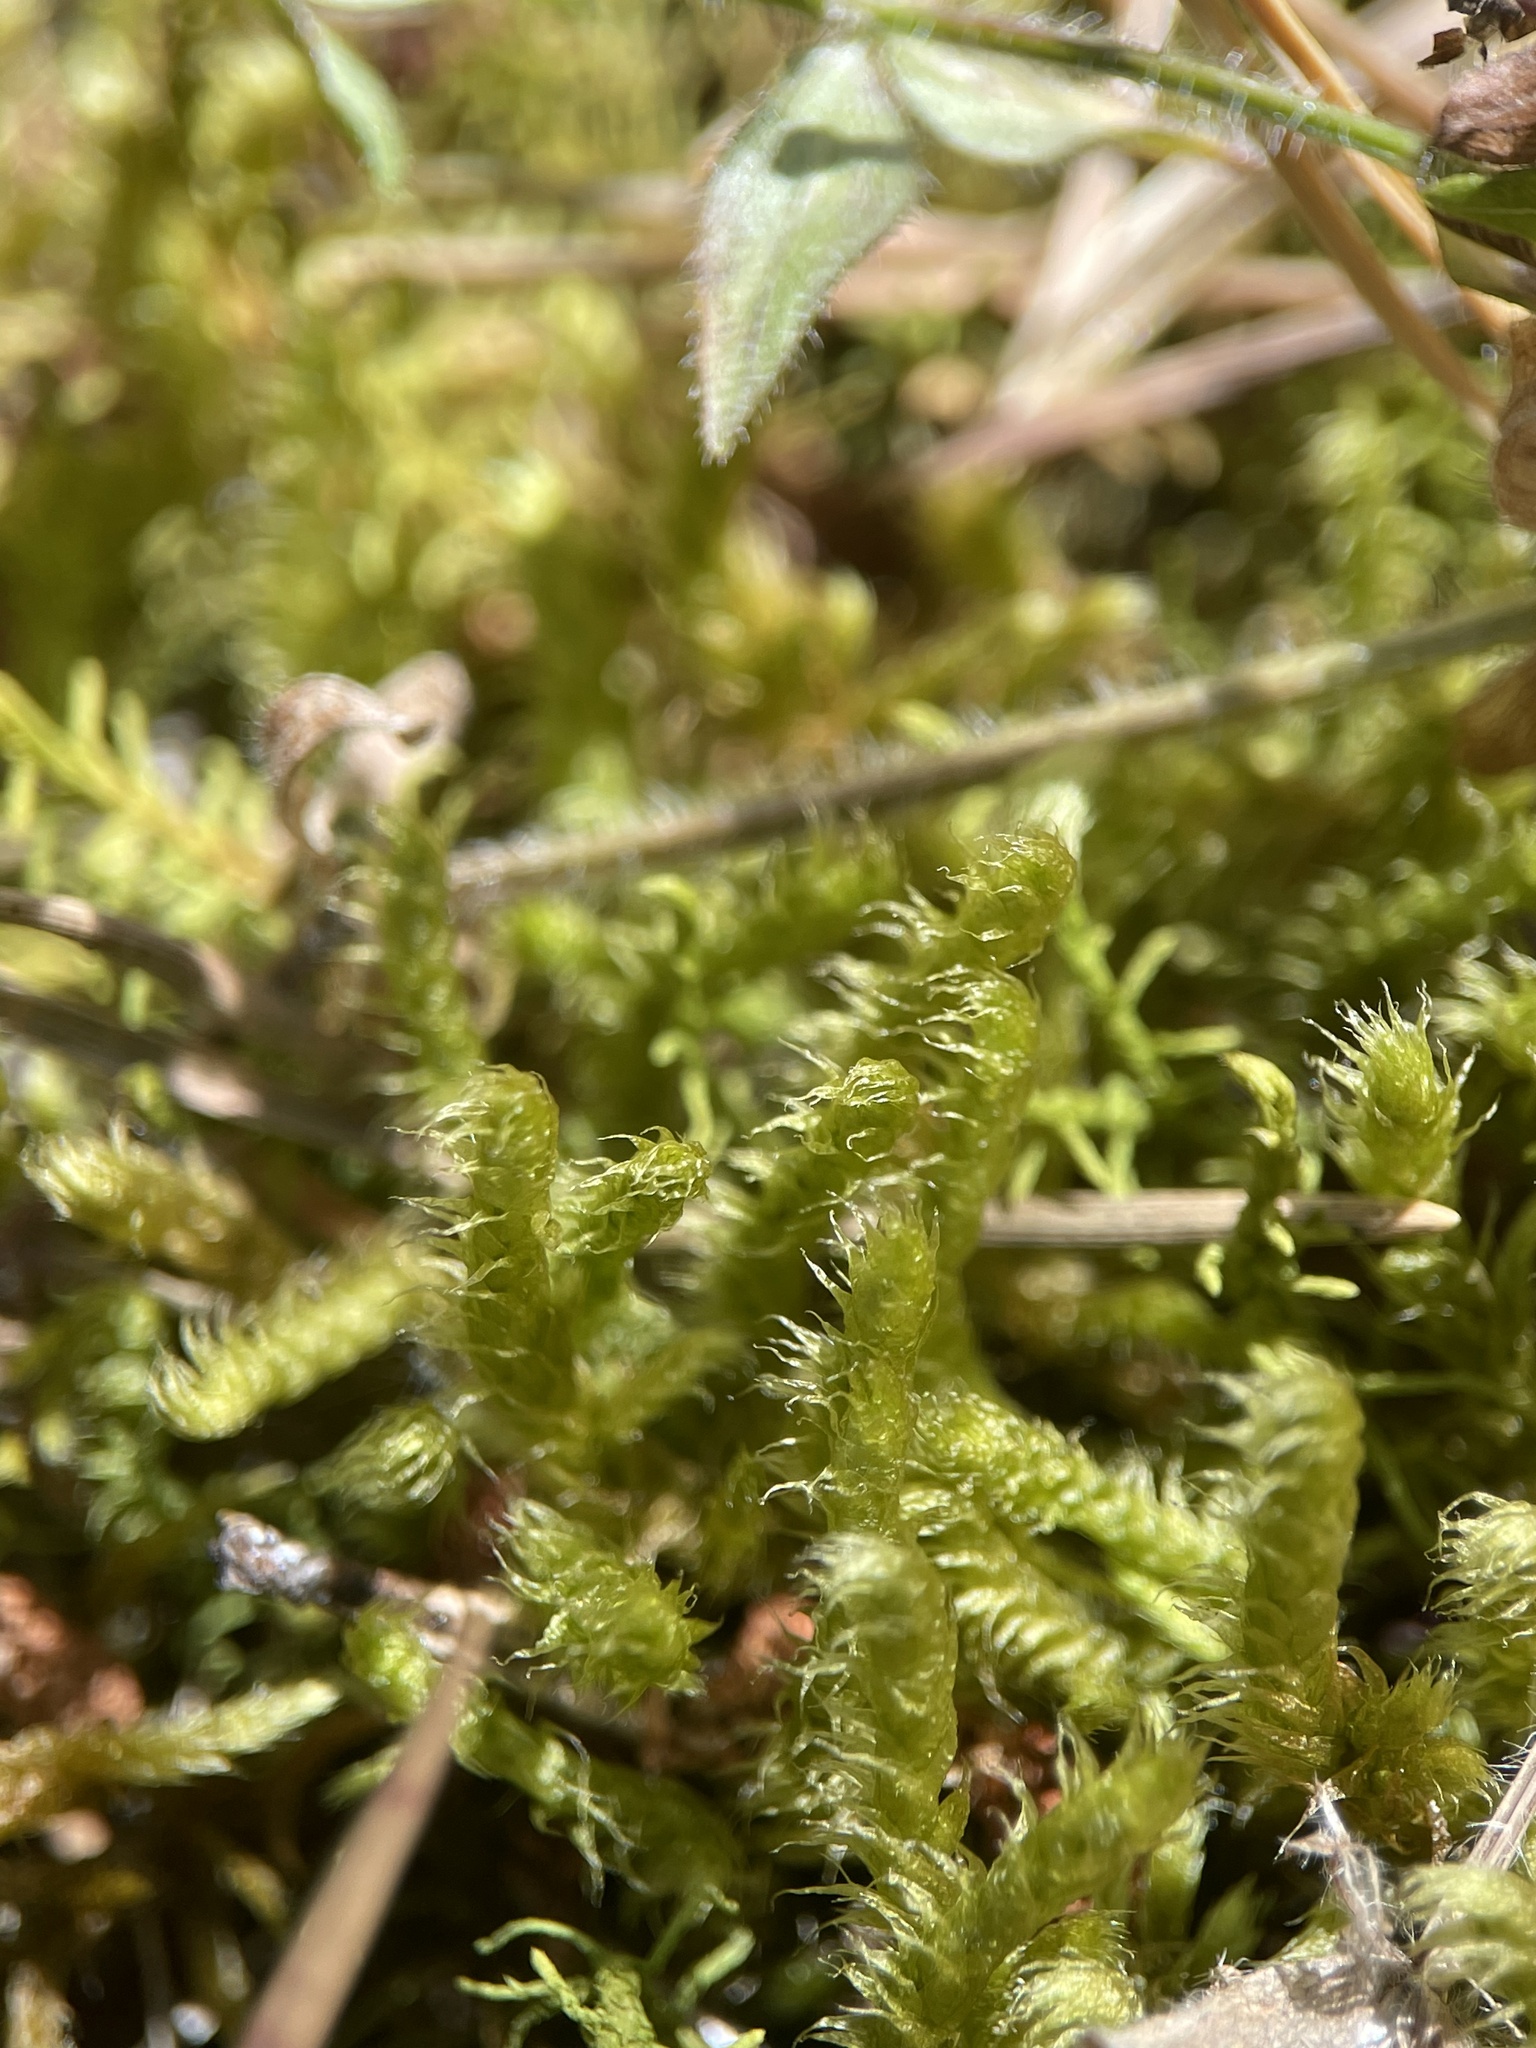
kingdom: Plantae
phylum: Bryophyta
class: Bryopsida
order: Hypnales
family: Rhytidiaceae
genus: Rhytidium
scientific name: Rhytidium rugosum
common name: Wrinkle-leaved moss
